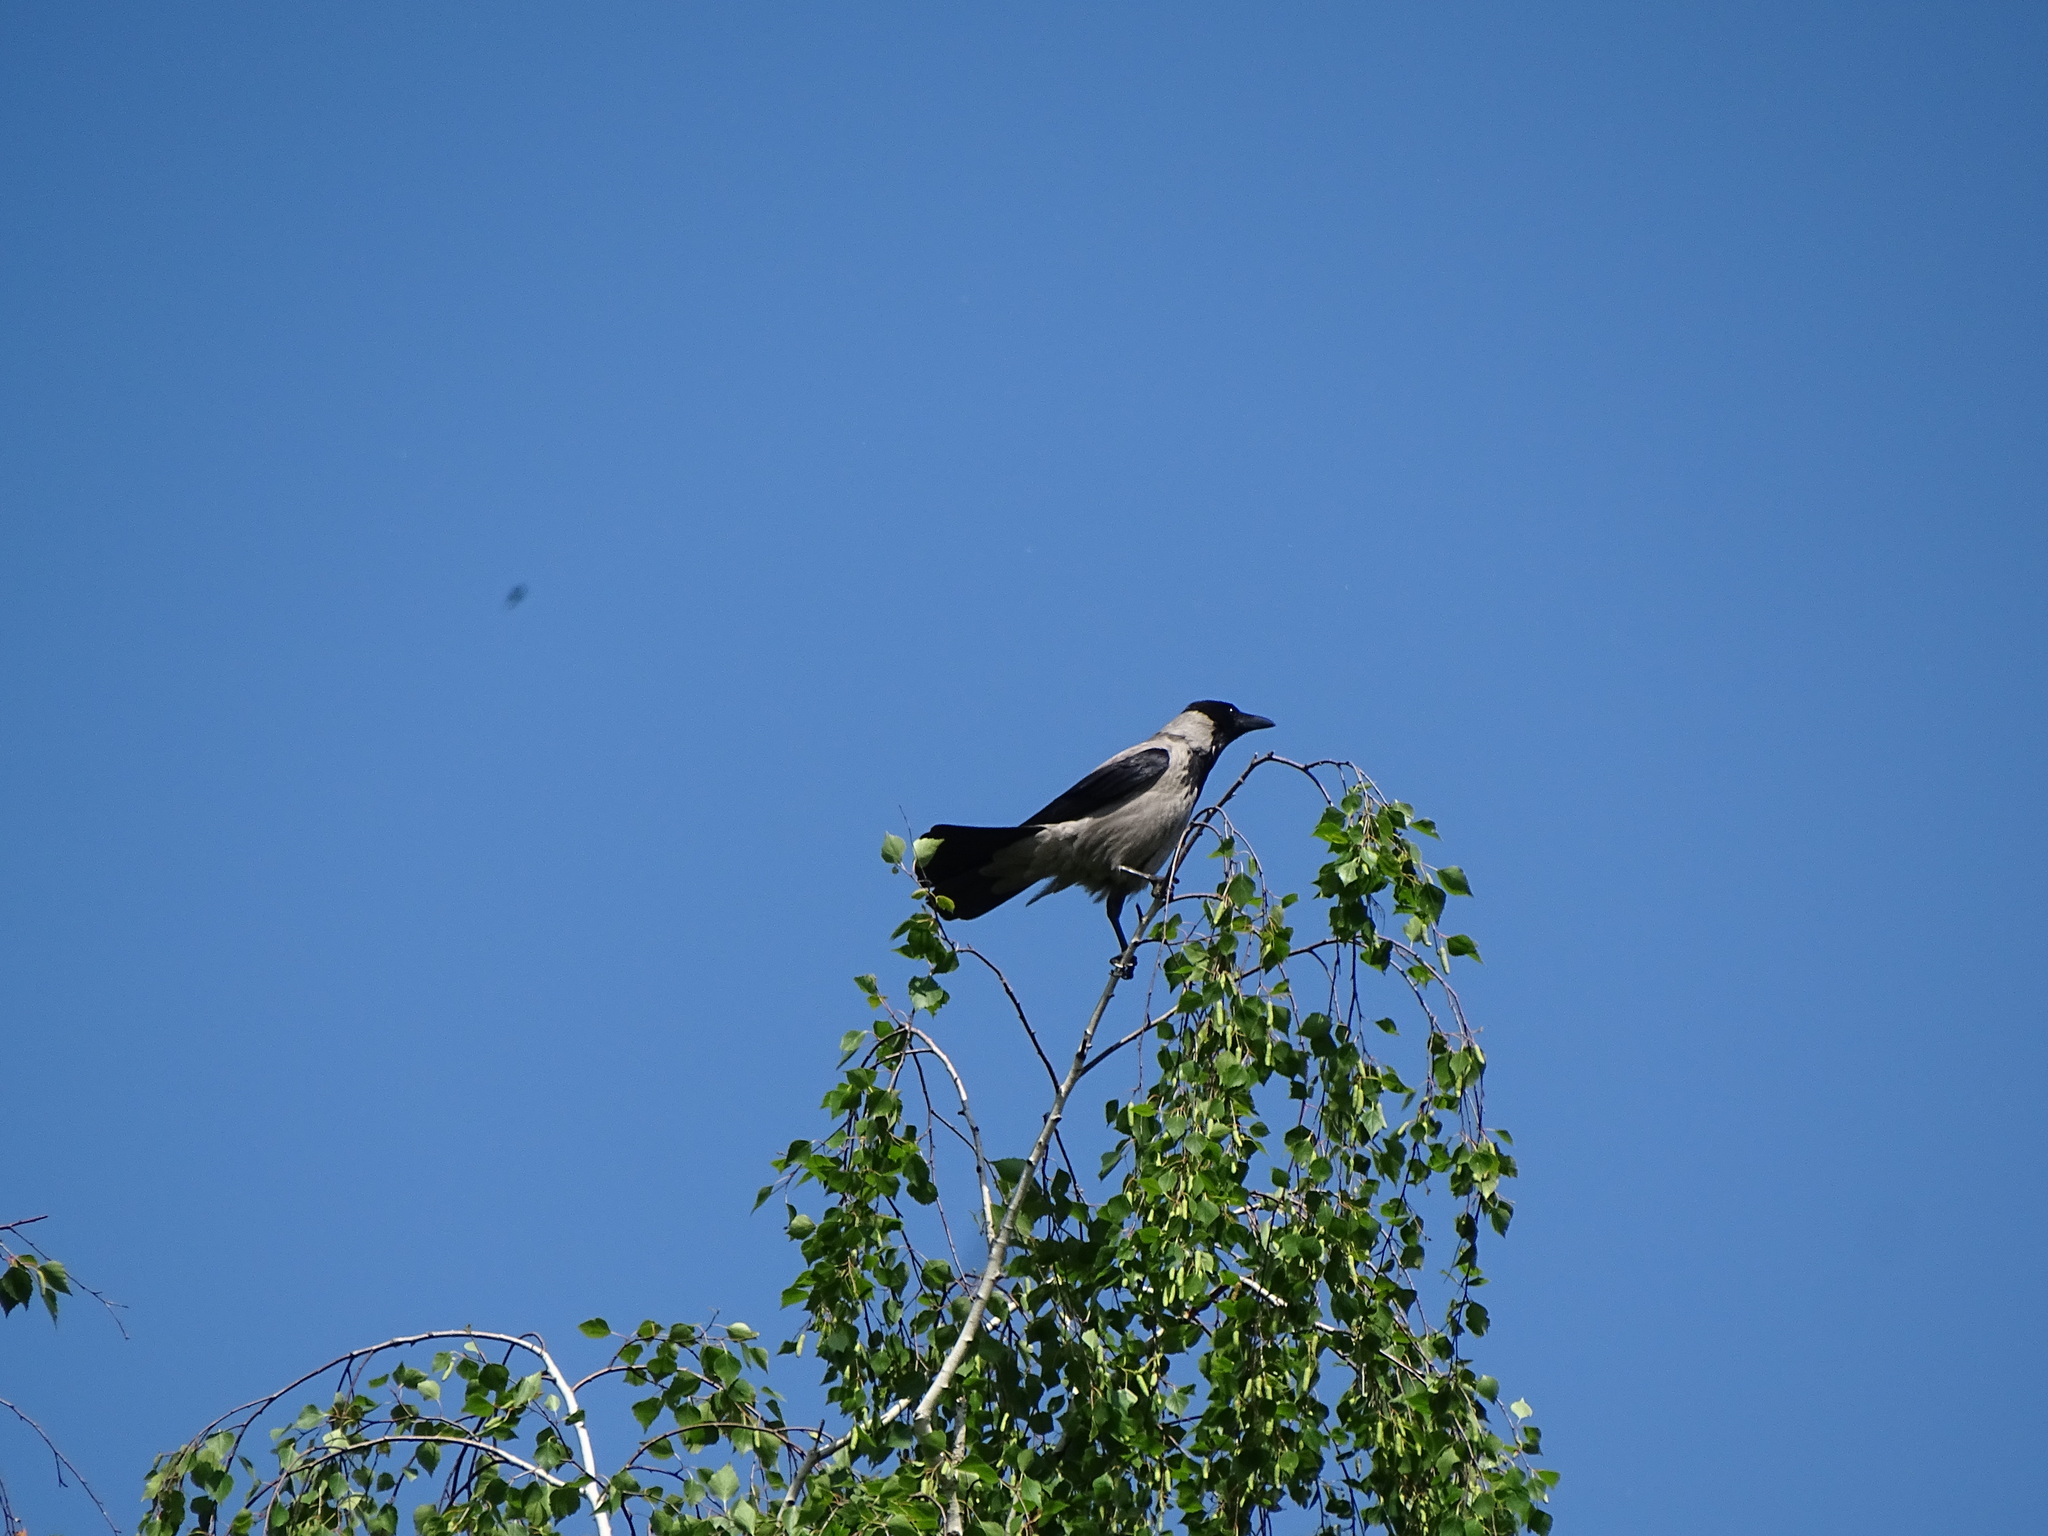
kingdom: Animalia
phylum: Chordata
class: Aves
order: Passeriformes
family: Corvidae
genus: Corvus
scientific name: Corvus cornix
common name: Hooded crow
